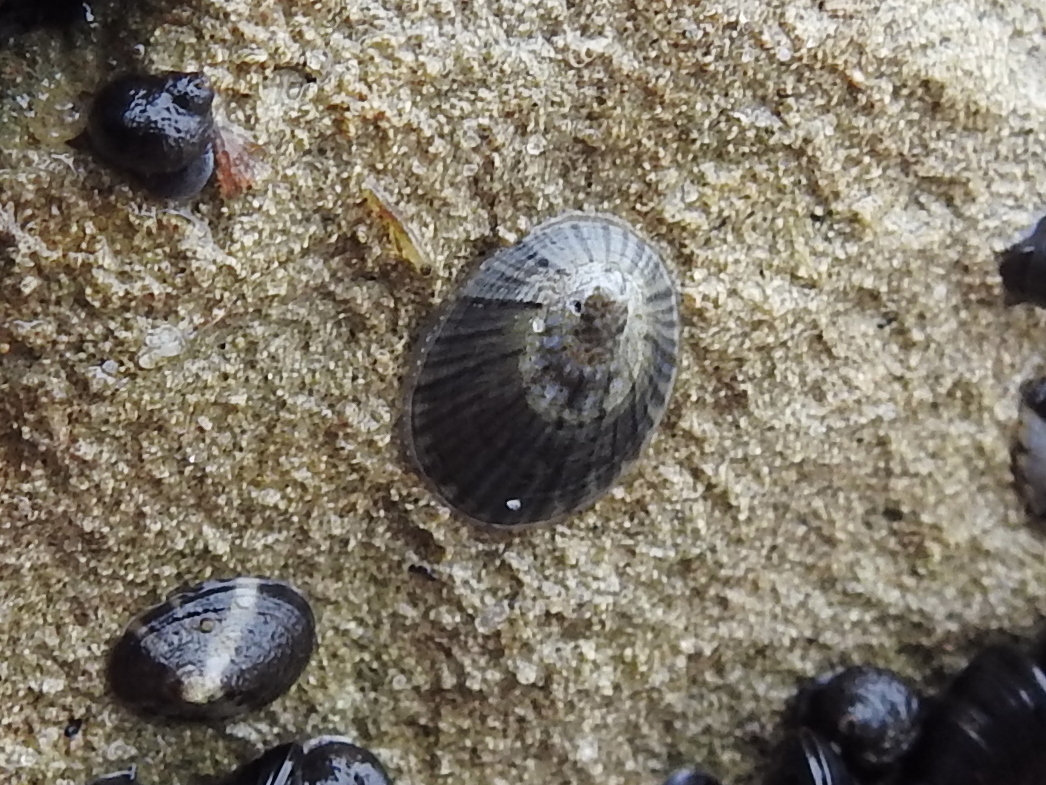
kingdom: Animalia
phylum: Mollusca
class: Gastropoda
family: Nacellidae
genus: Cellana
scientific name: Cellana radians
